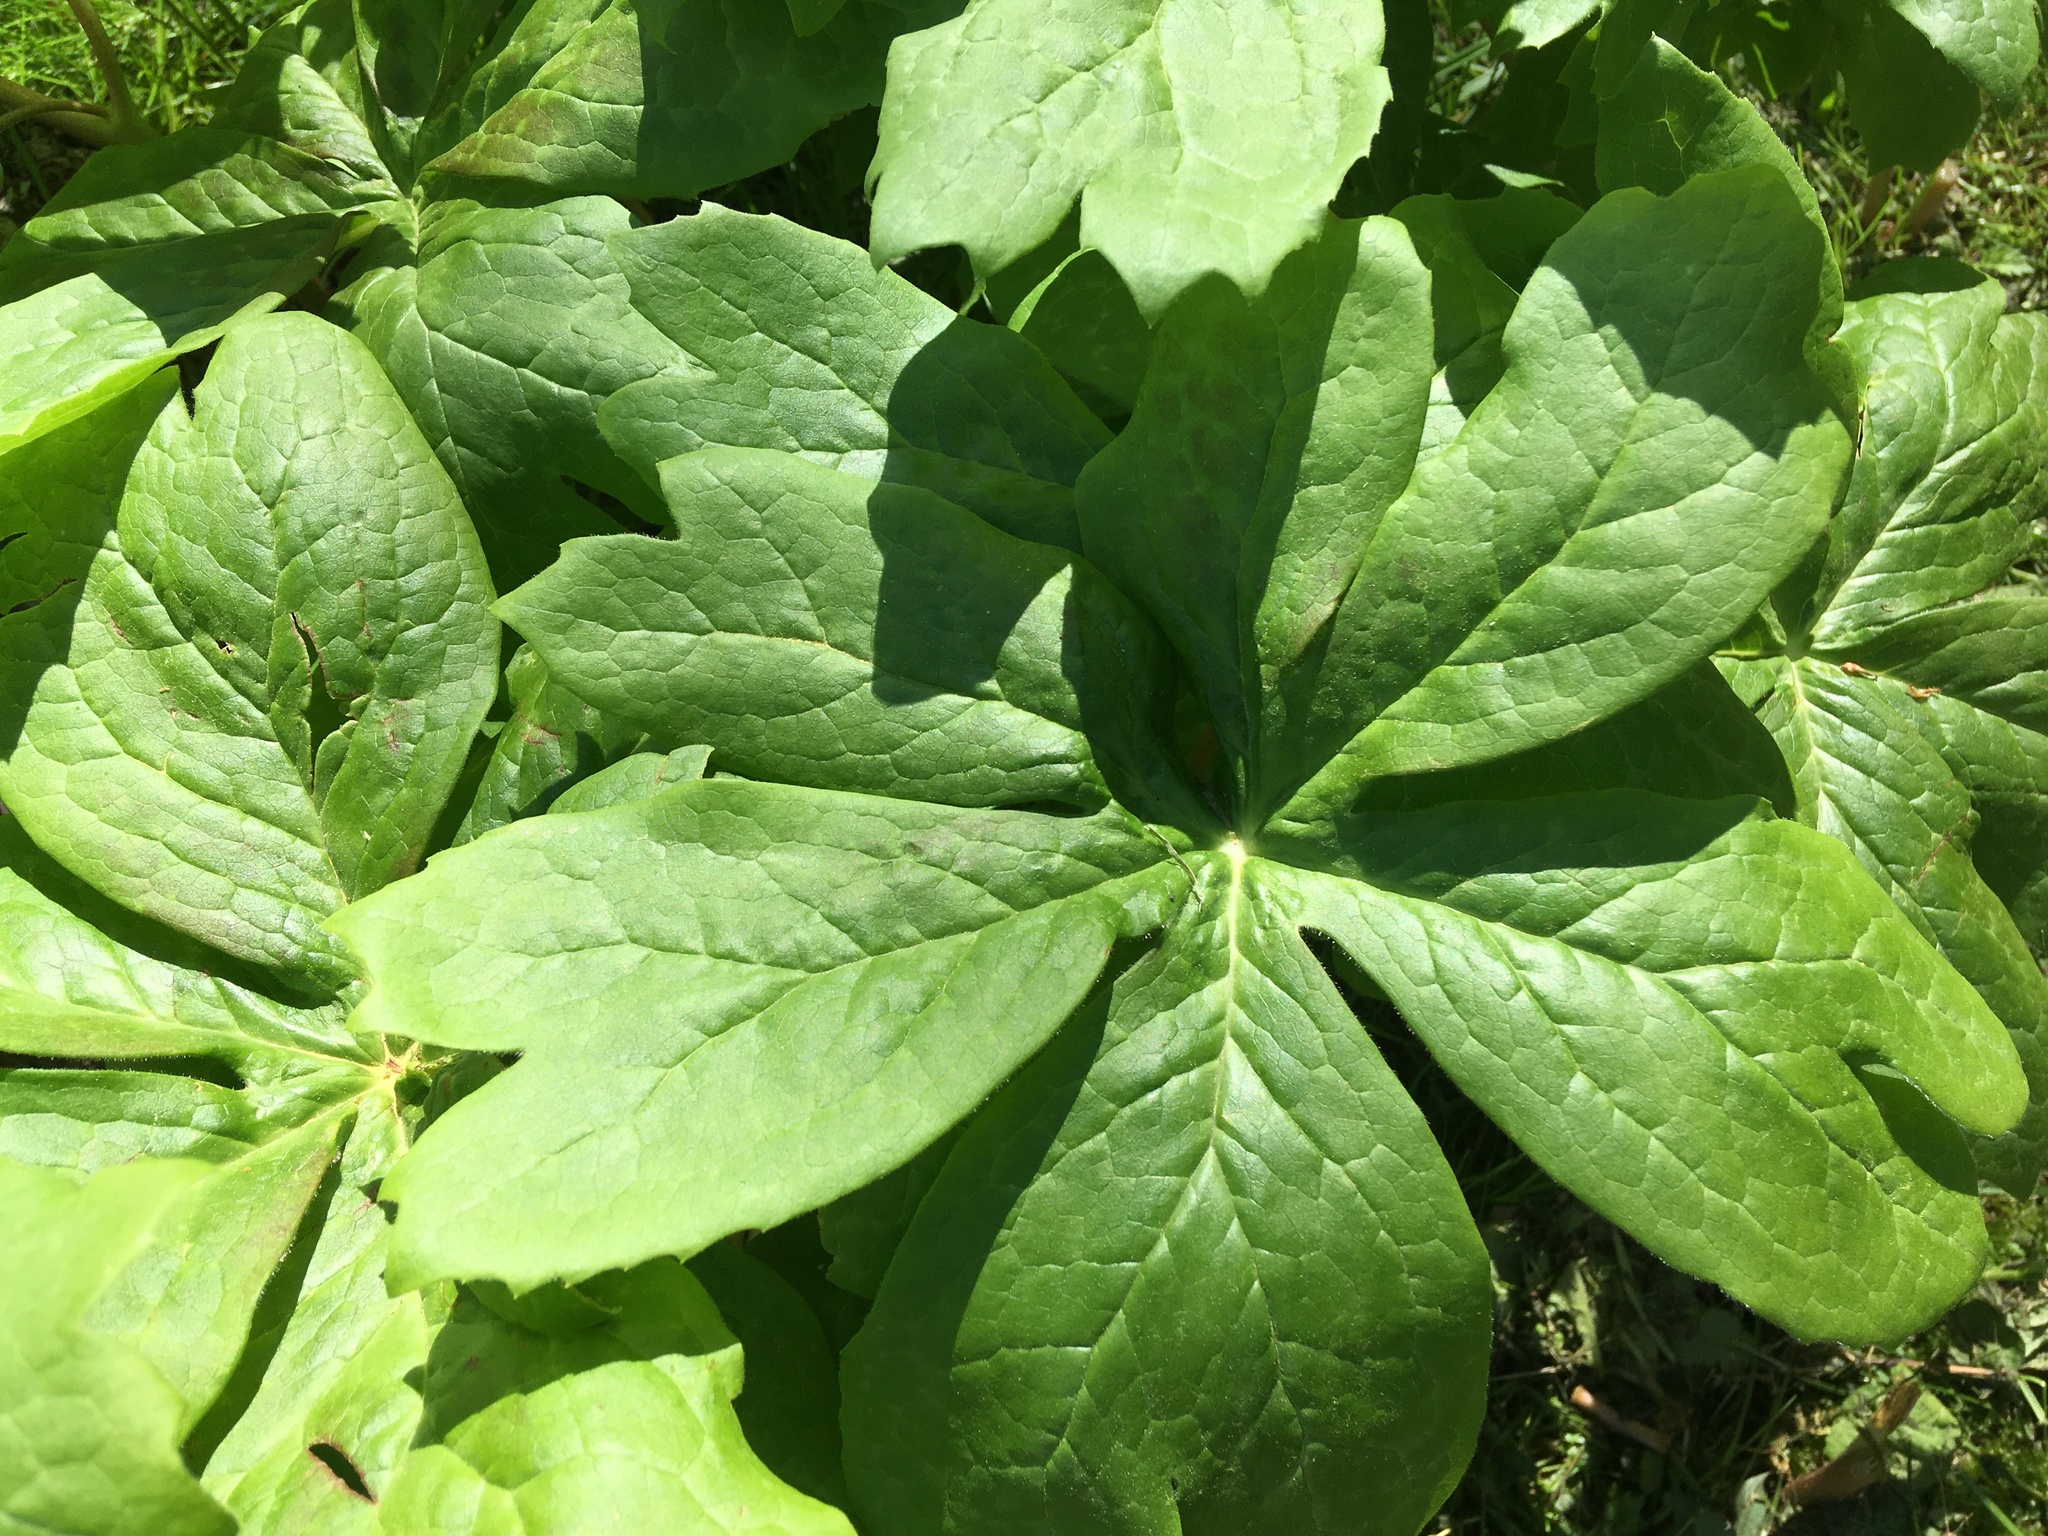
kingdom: Plantae
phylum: Tracheophyta
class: Magnoliopsida
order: Ranunculales
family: Berberidaceae
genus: Podophyllum
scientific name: Podophyllum peltatum
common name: Wild mandrake
